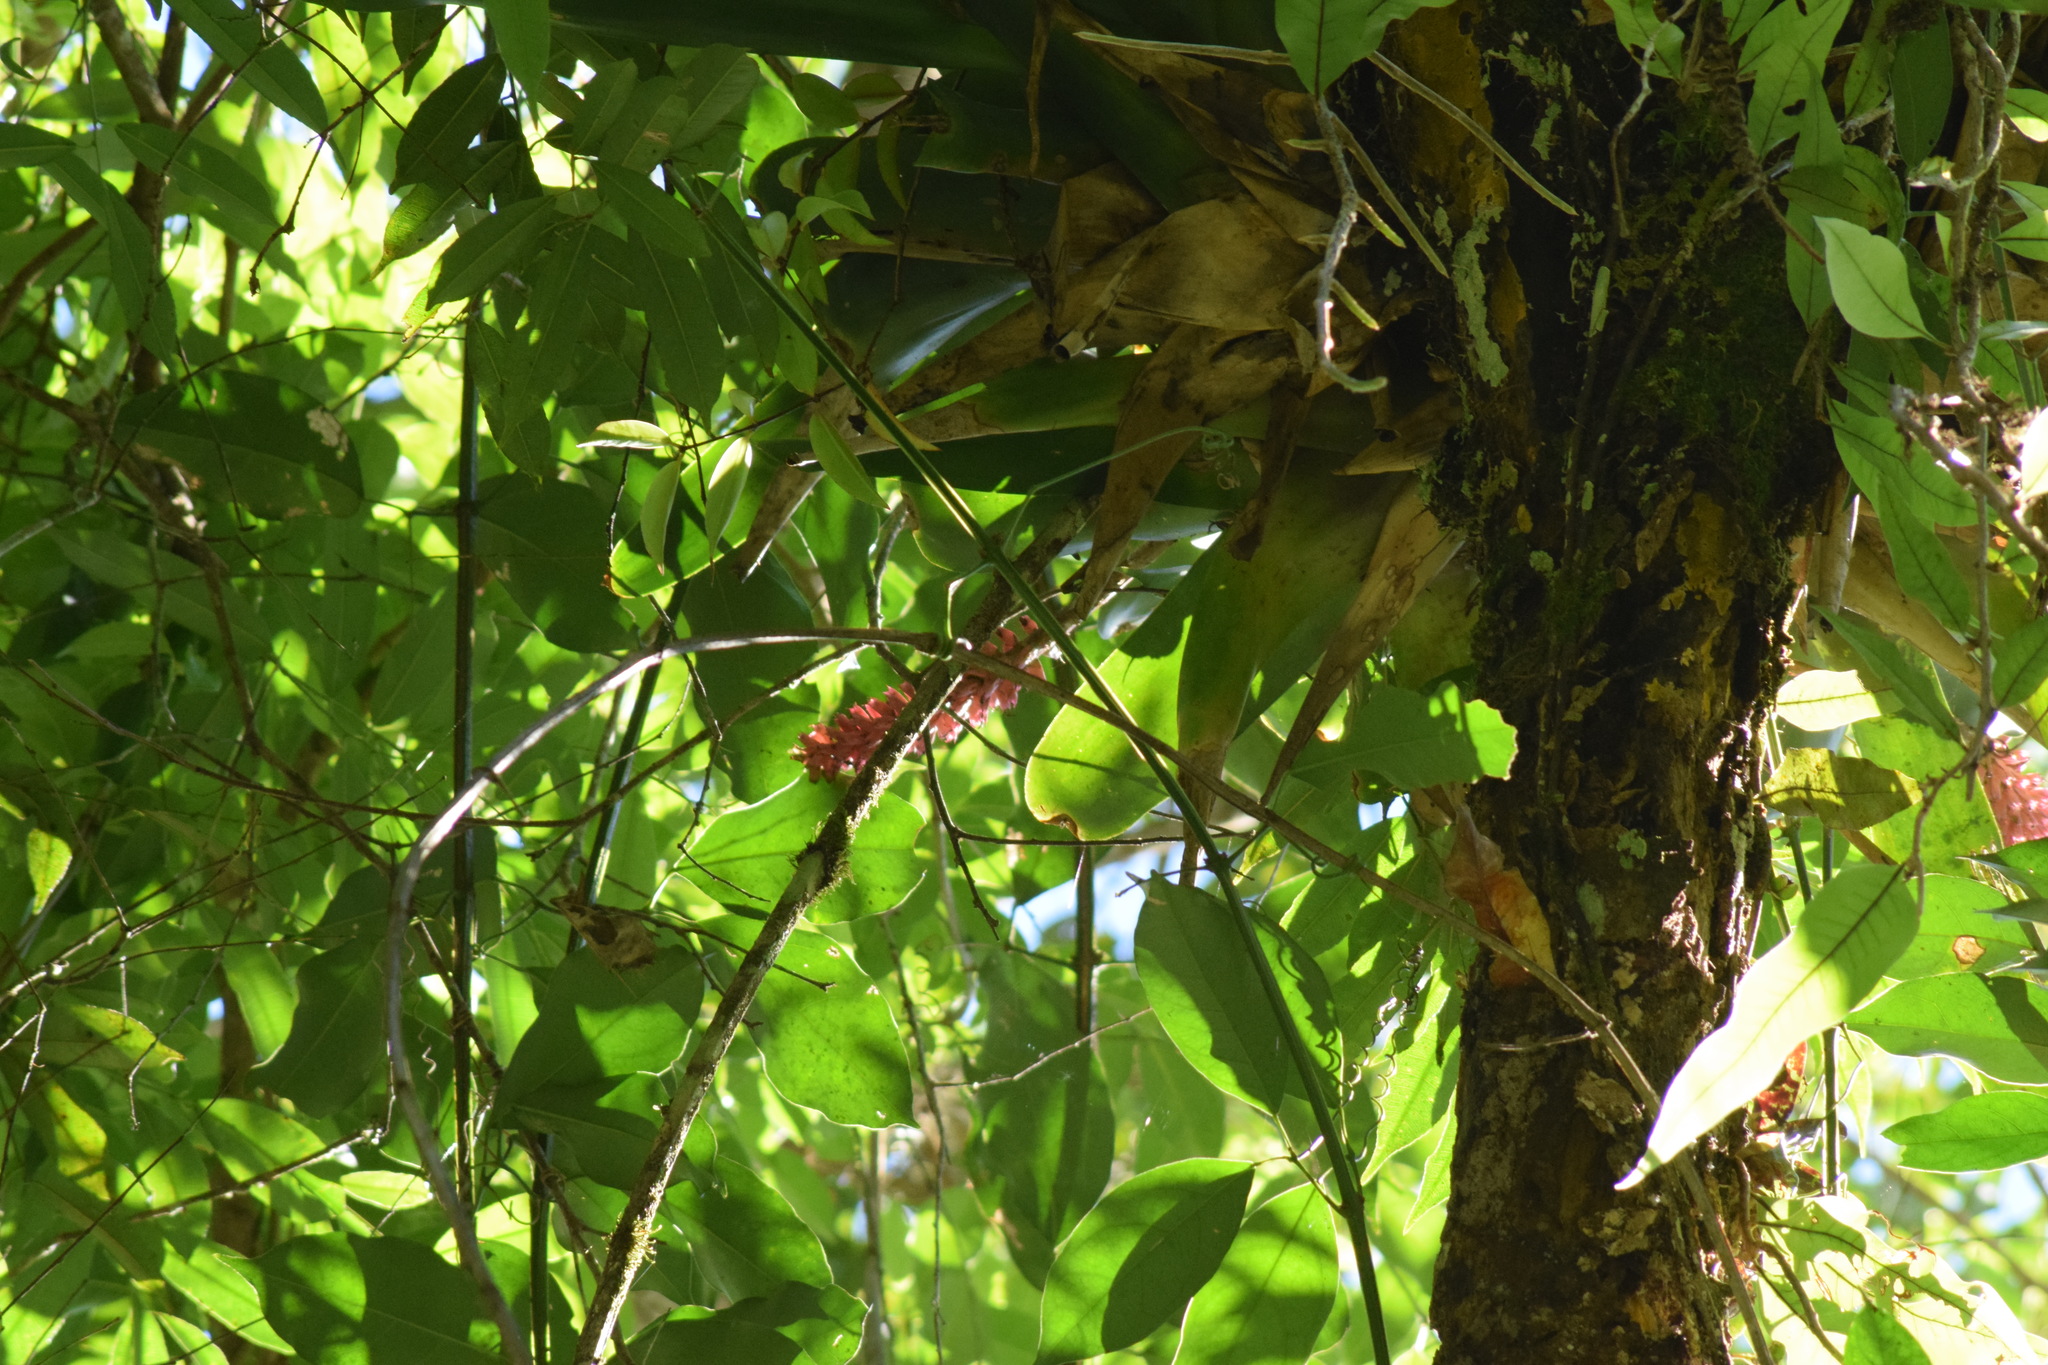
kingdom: Plantae
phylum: Tracheophyta
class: Liliopsida
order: Poales
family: Bromeliaceae
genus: Aechmea
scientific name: Aechmea cylindrata
